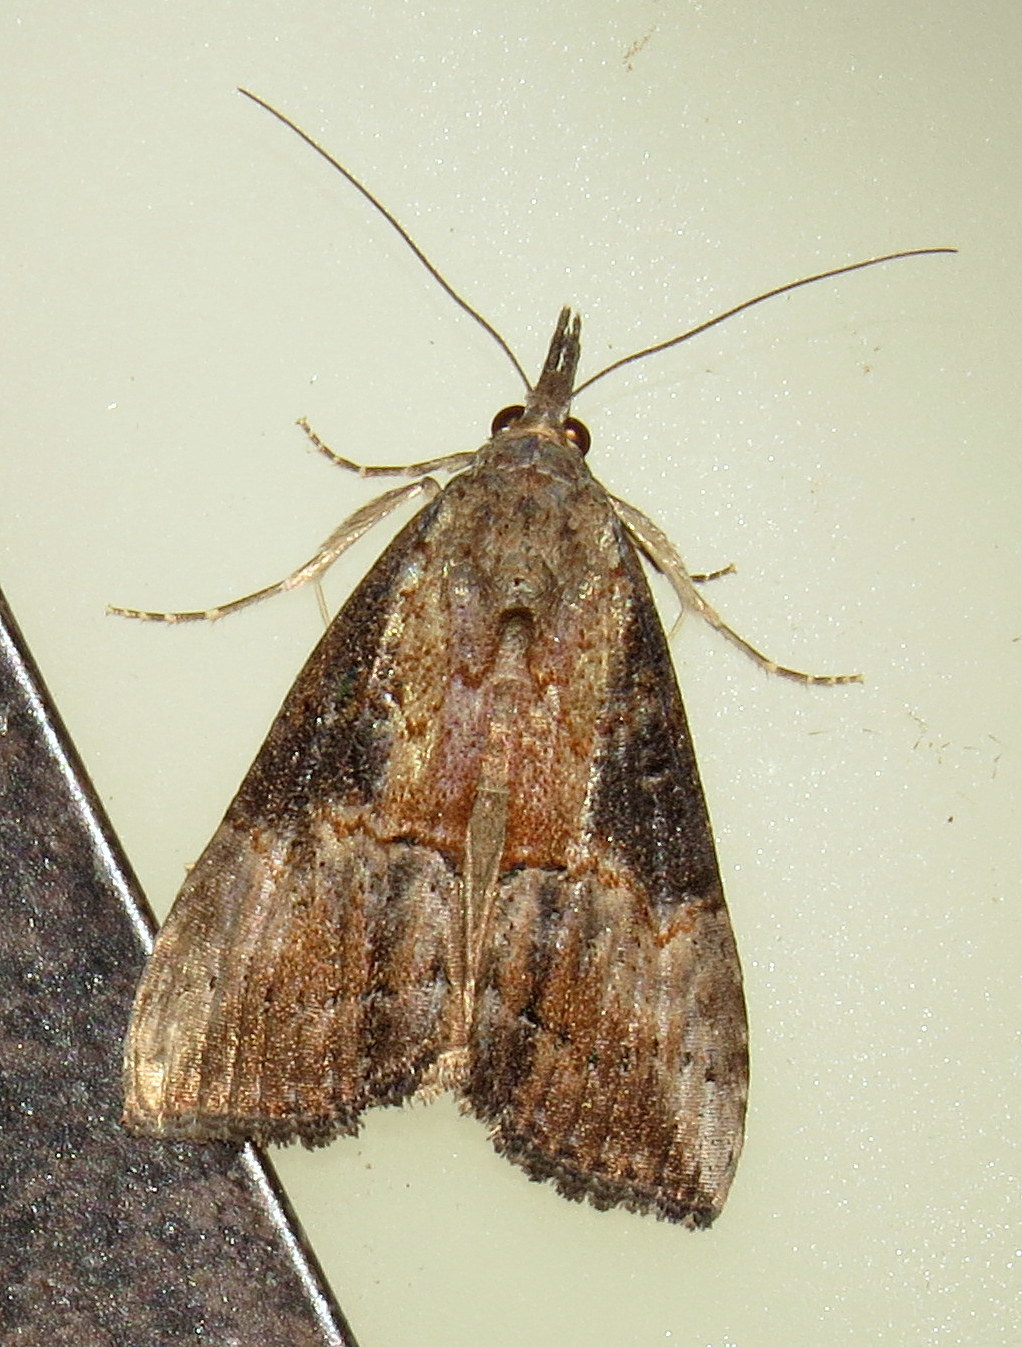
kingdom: Animalia
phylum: Arthropoda
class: Insecta
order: Lepidoptera
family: Erebidae
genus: Hypena
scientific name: Hypena scabra
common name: Green cloverworm
